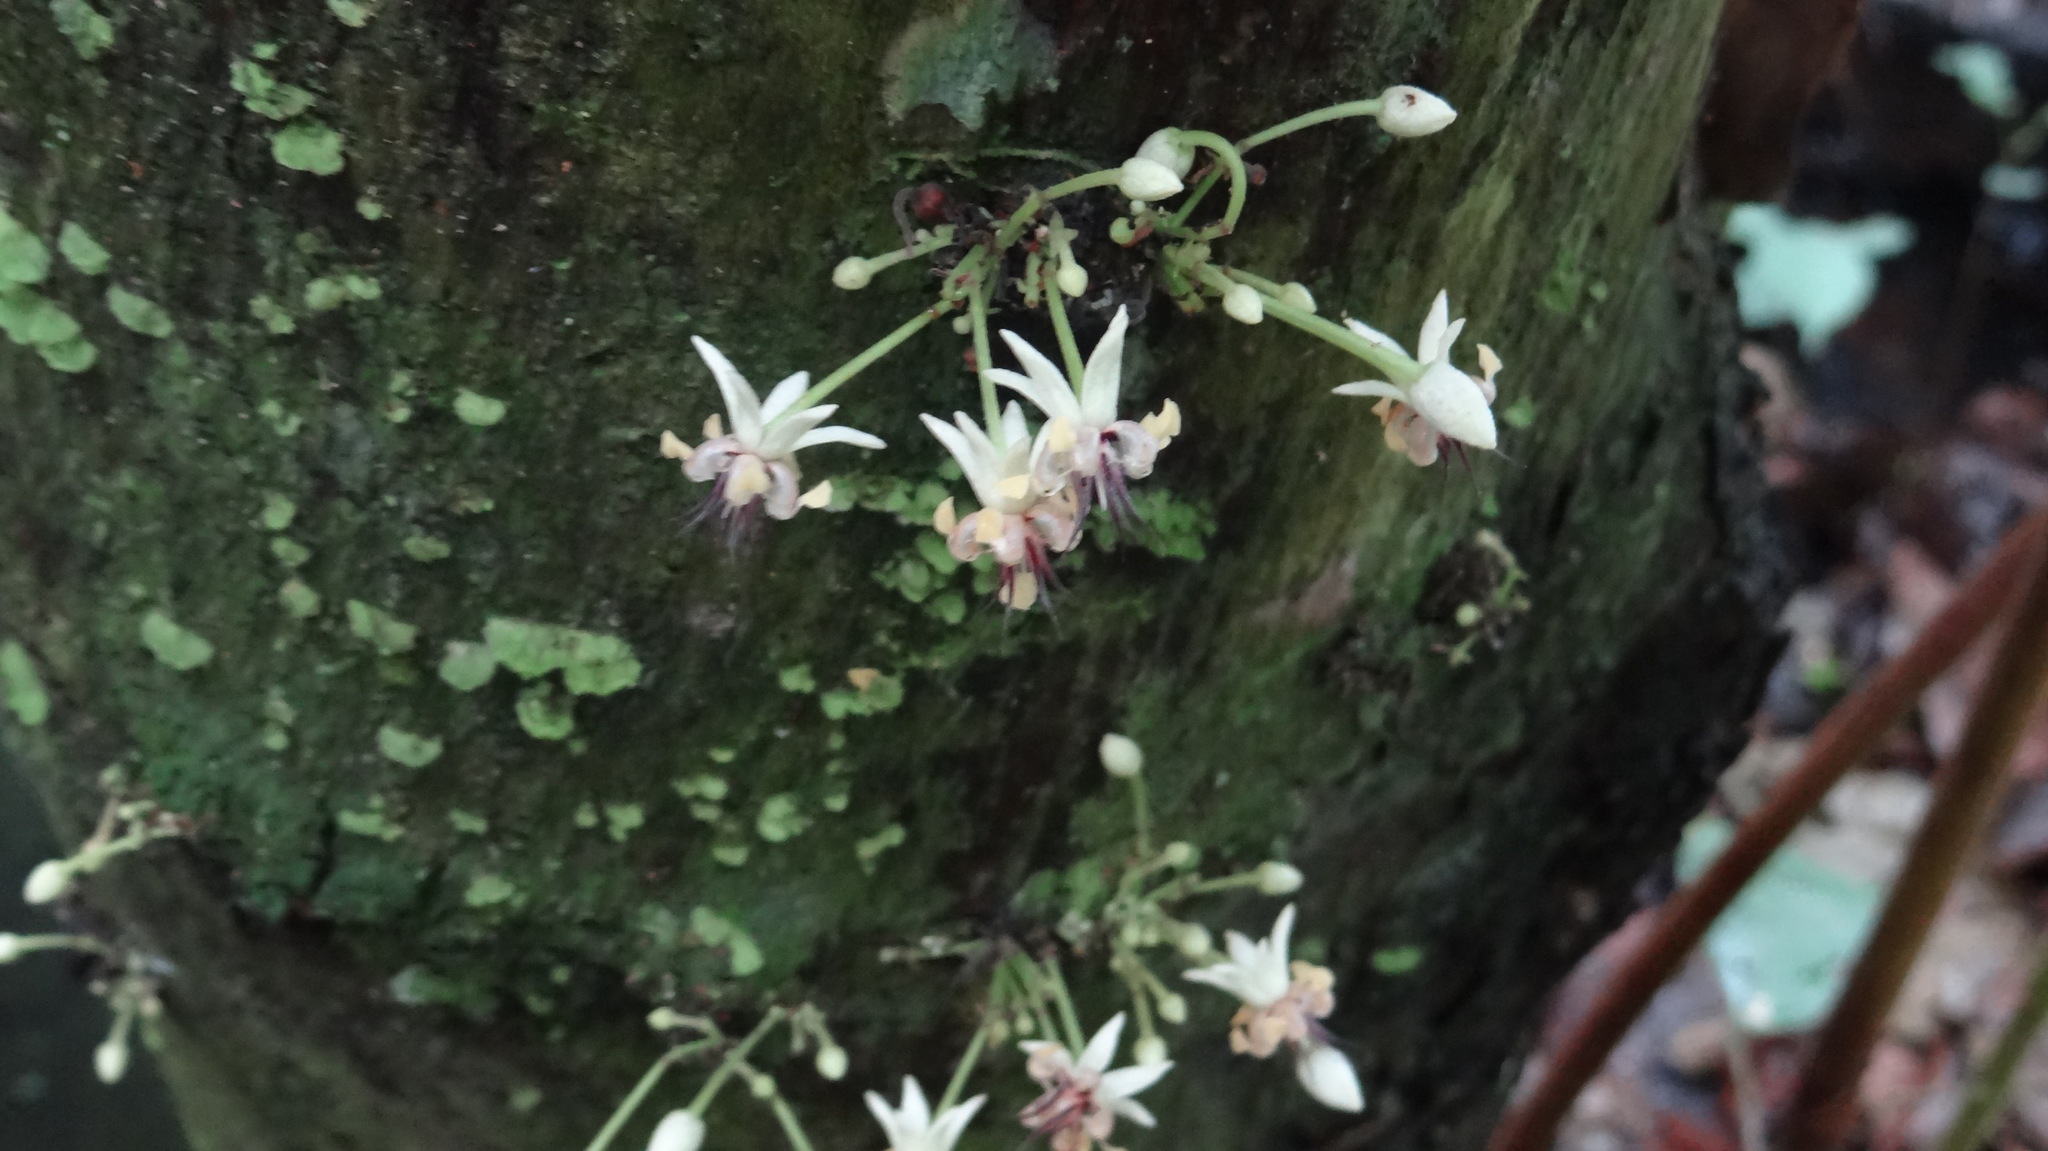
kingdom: Plantae
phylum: Tracheophyta
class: Magnoliopsida
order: Malvales
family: Malvaceae
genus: Theobroma
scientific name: Theobroma cacao
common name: Cocoa
